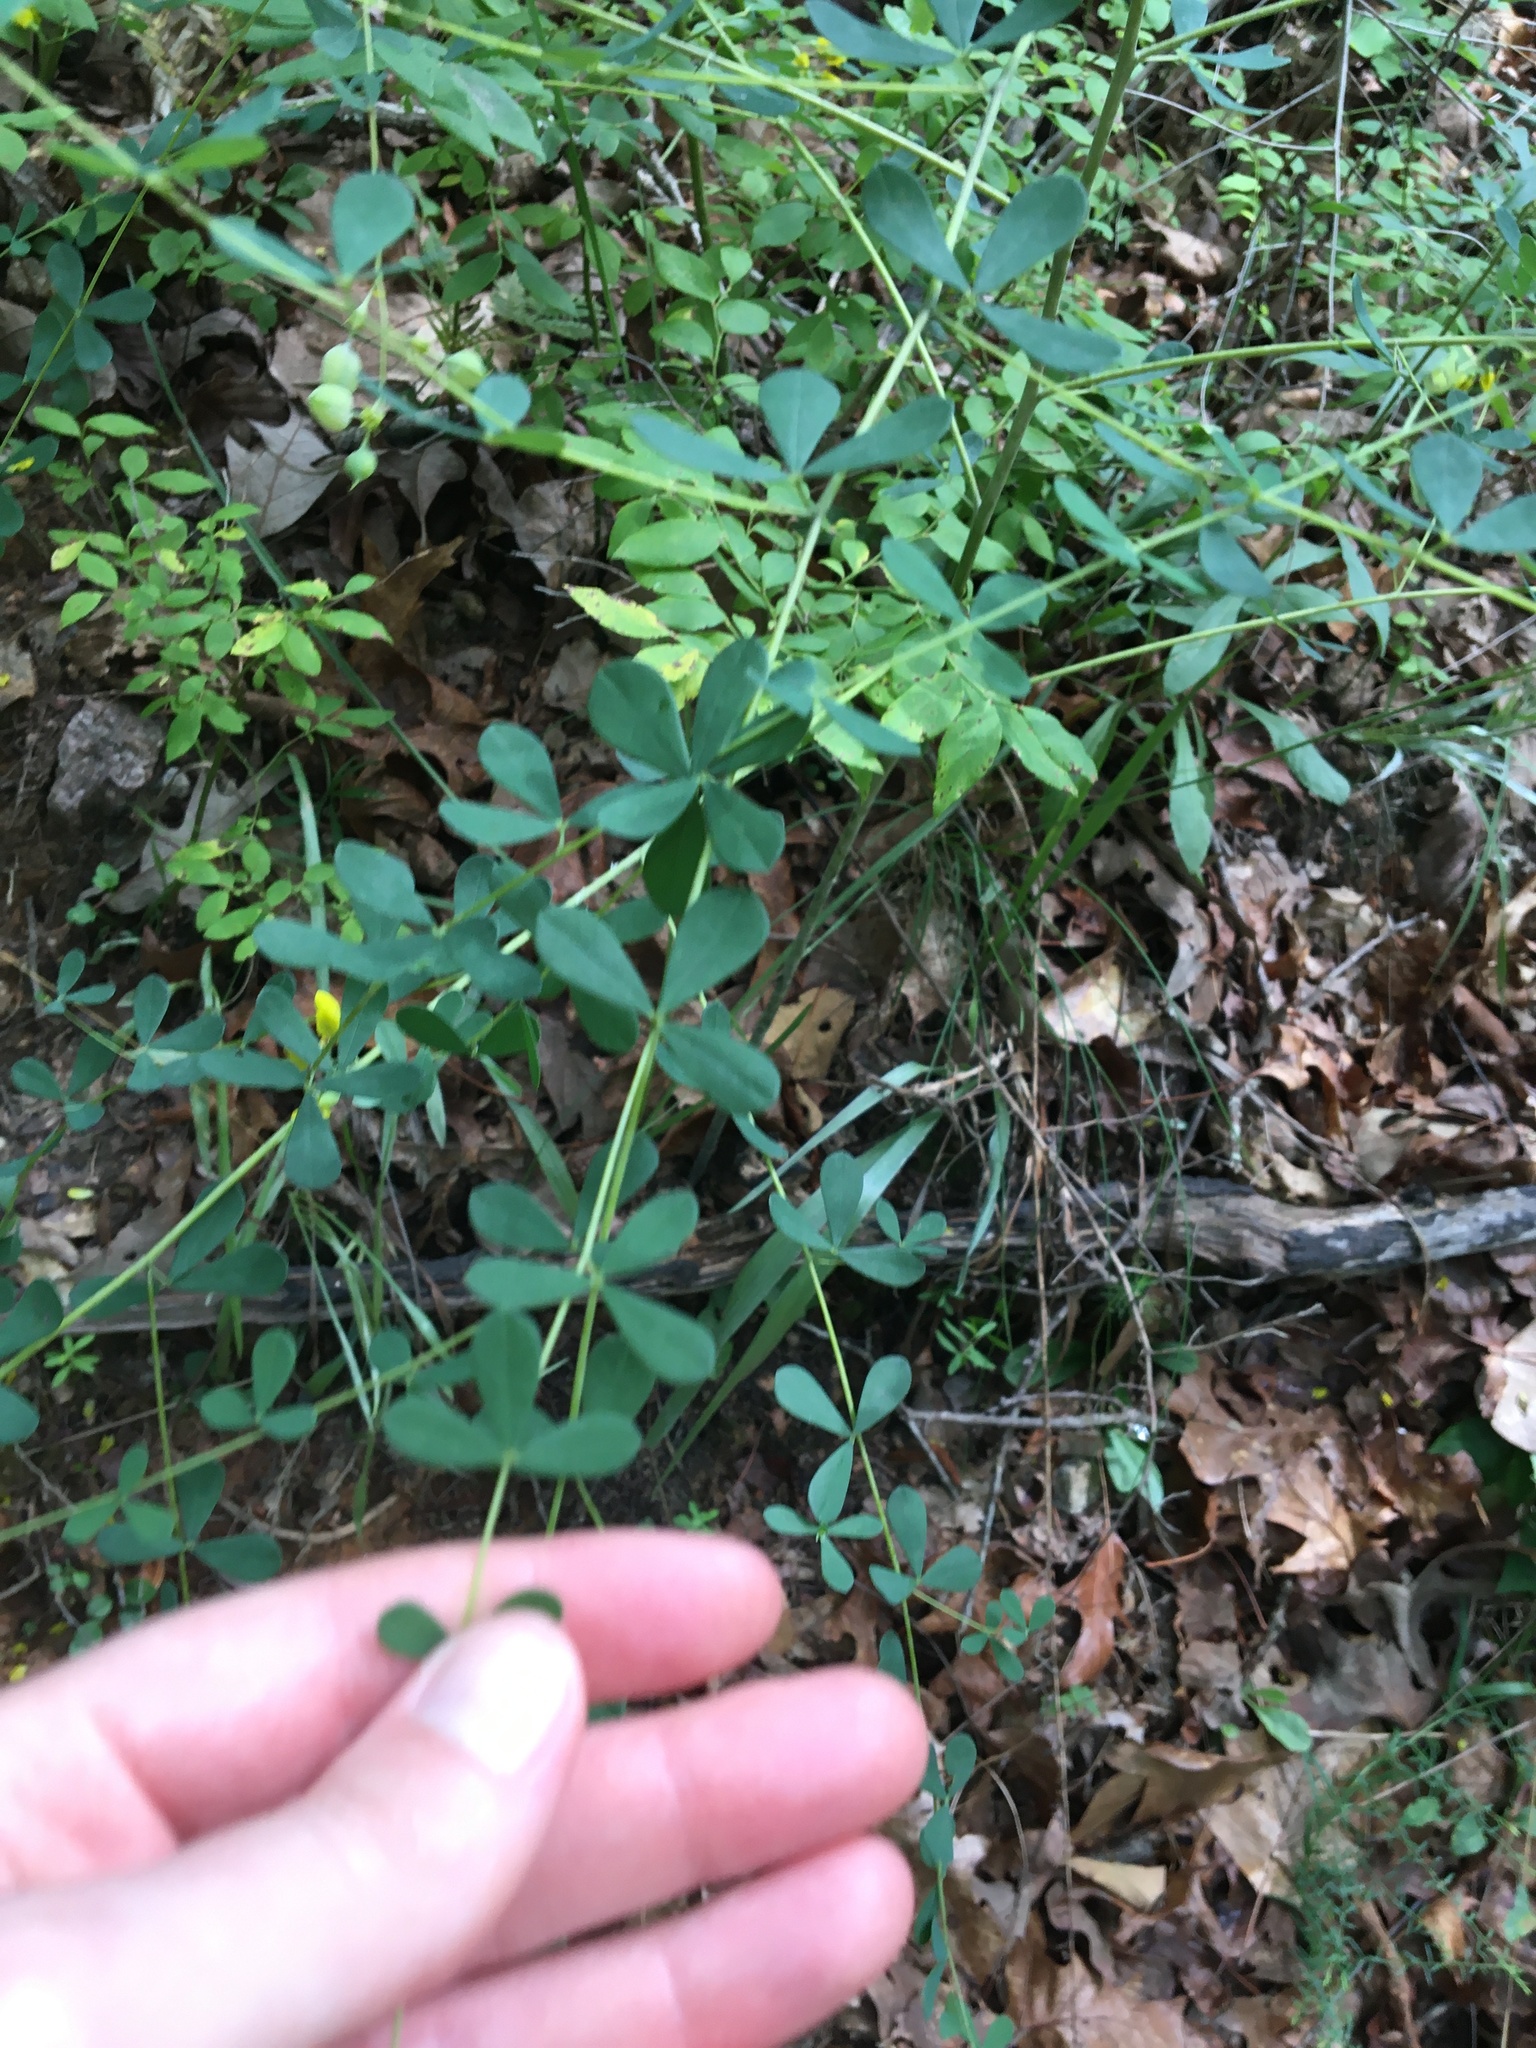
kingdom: Plantae
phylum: Tracheophyta
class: Magnoliopsida
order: Fabales
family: Fabaceae
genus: Baptisia
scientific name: Baptisia tinctoria
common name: Wild indigo
